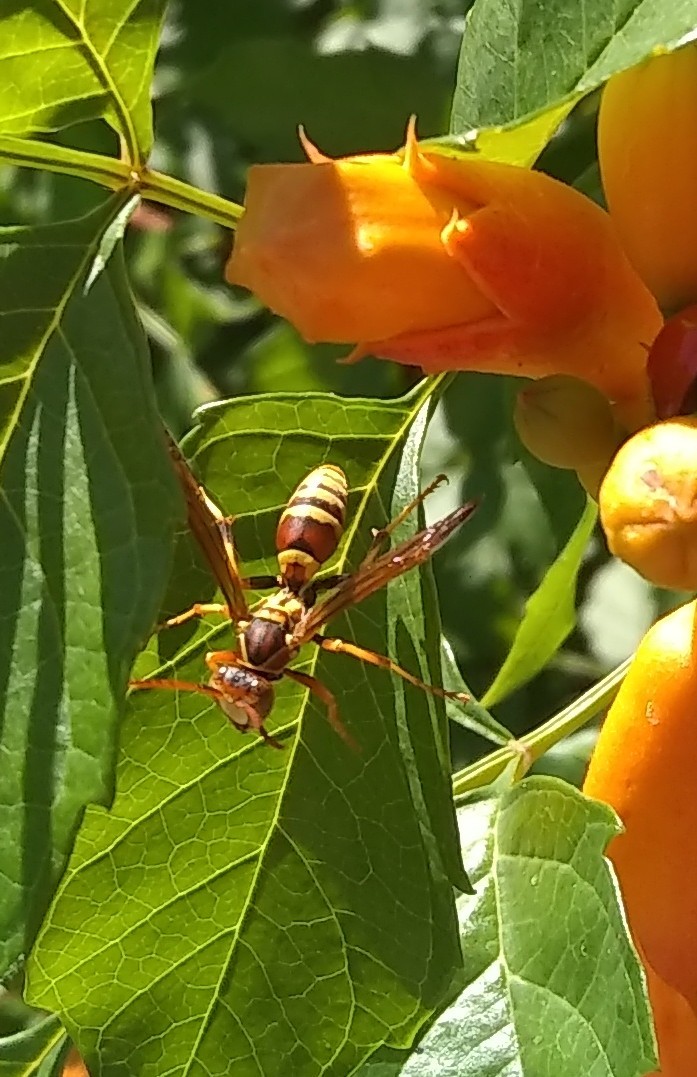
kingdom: Animalia
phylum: Arthropoda
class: Insecta
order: Hymenoptera
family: Eumenidae
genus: Polistes
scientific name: Polistes dorsalis
